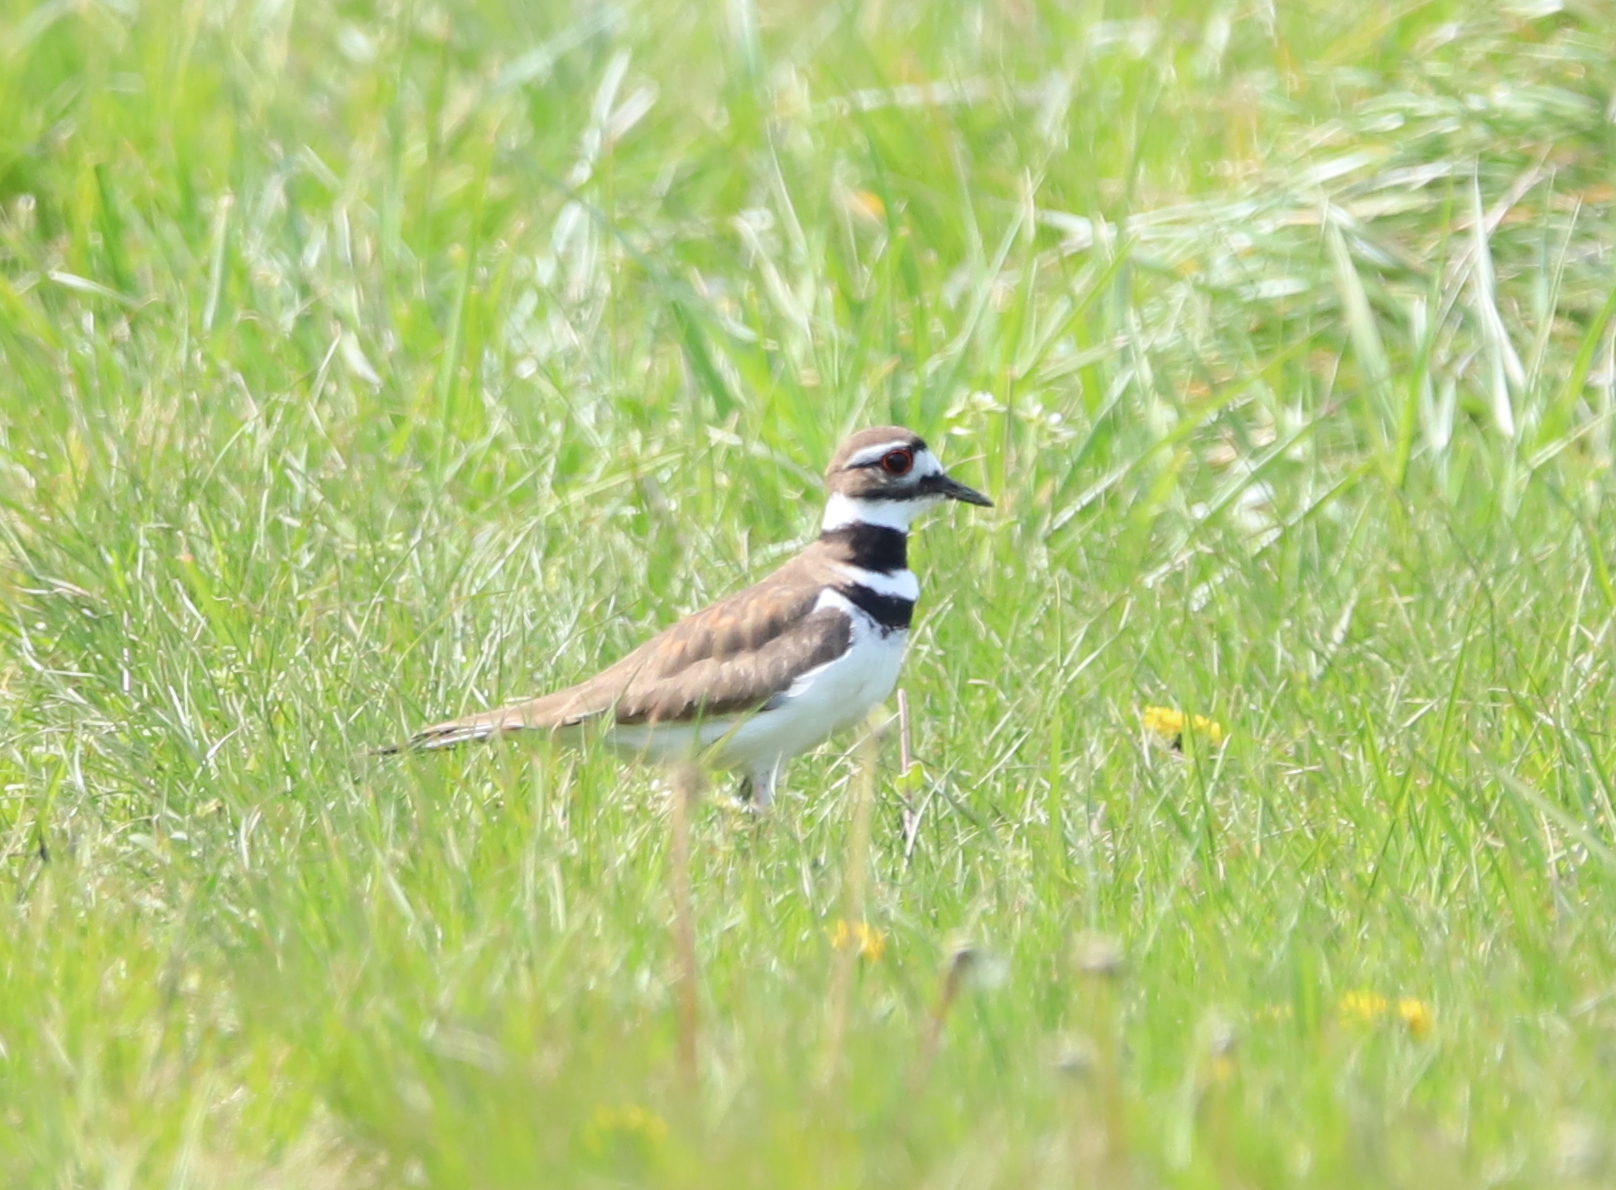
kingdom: Animalia
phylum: Chordata
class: Aves
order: Charadriiformes
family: Charadriidae
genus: Charadrius
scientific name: Charadrius vociferus
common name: Killdeer
